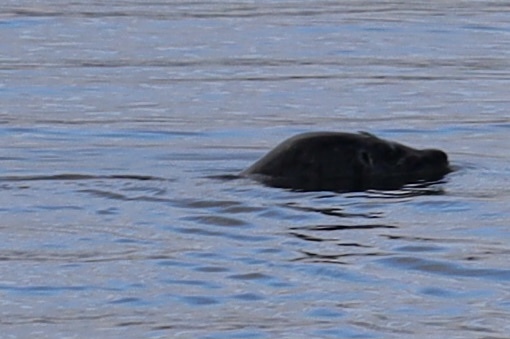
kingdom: Animalia
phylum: Chordata
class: Mammalia
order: Carnivora
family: Phocidae
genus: Phoca
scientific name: Phoca vitulina
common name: Harbor seal
